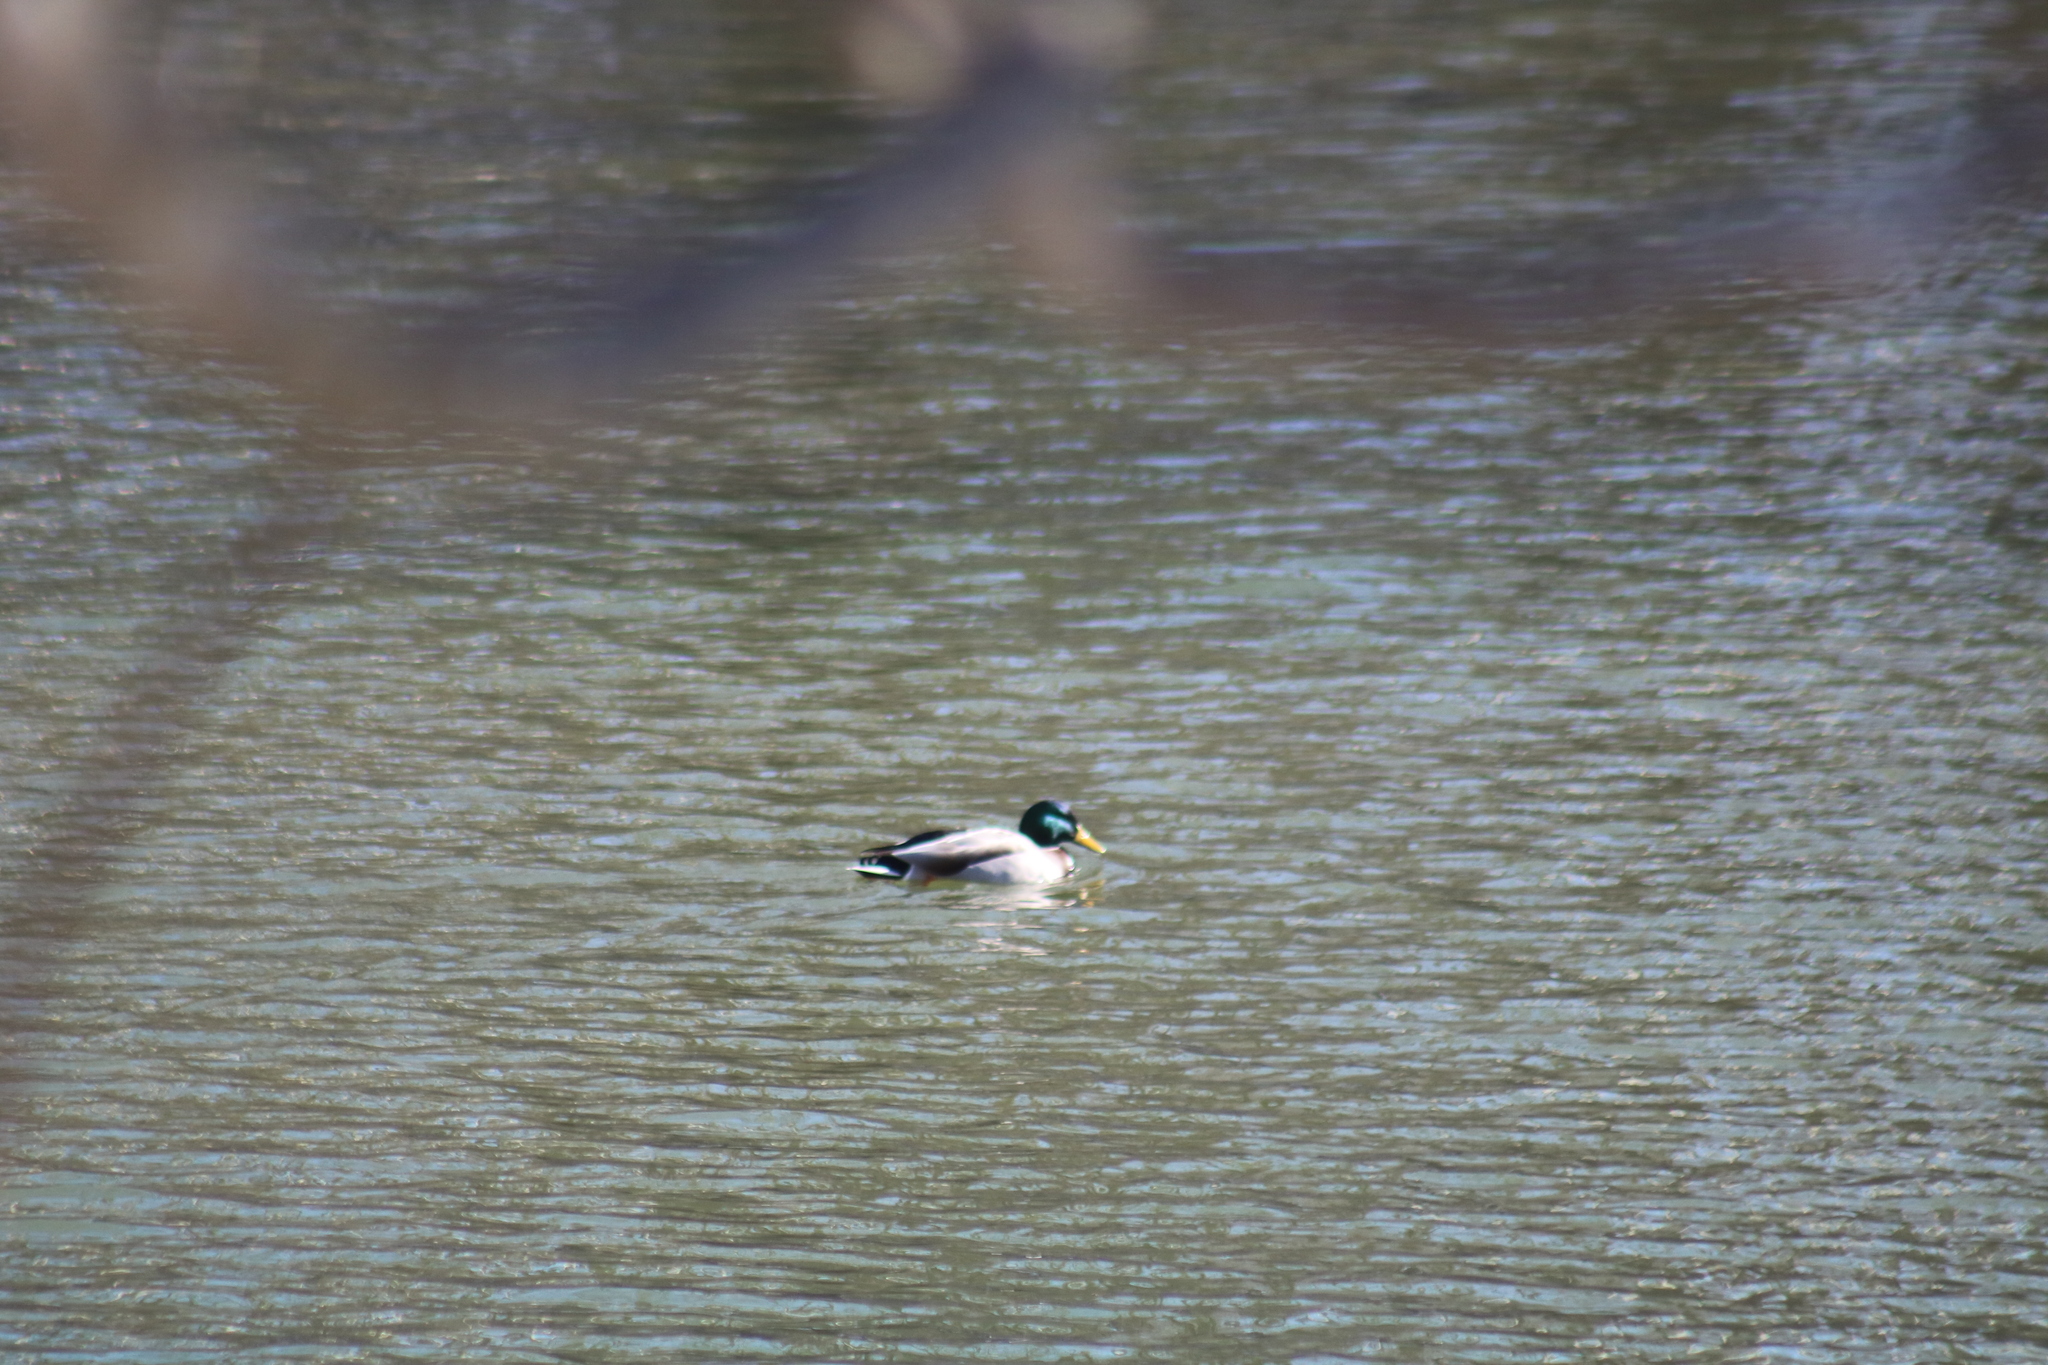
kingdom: Animalia
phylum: Chordata
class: Aves
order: Anseriformes
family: Anatidae
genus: Anas
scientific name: Anas platyrhynchos
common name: Mallard
